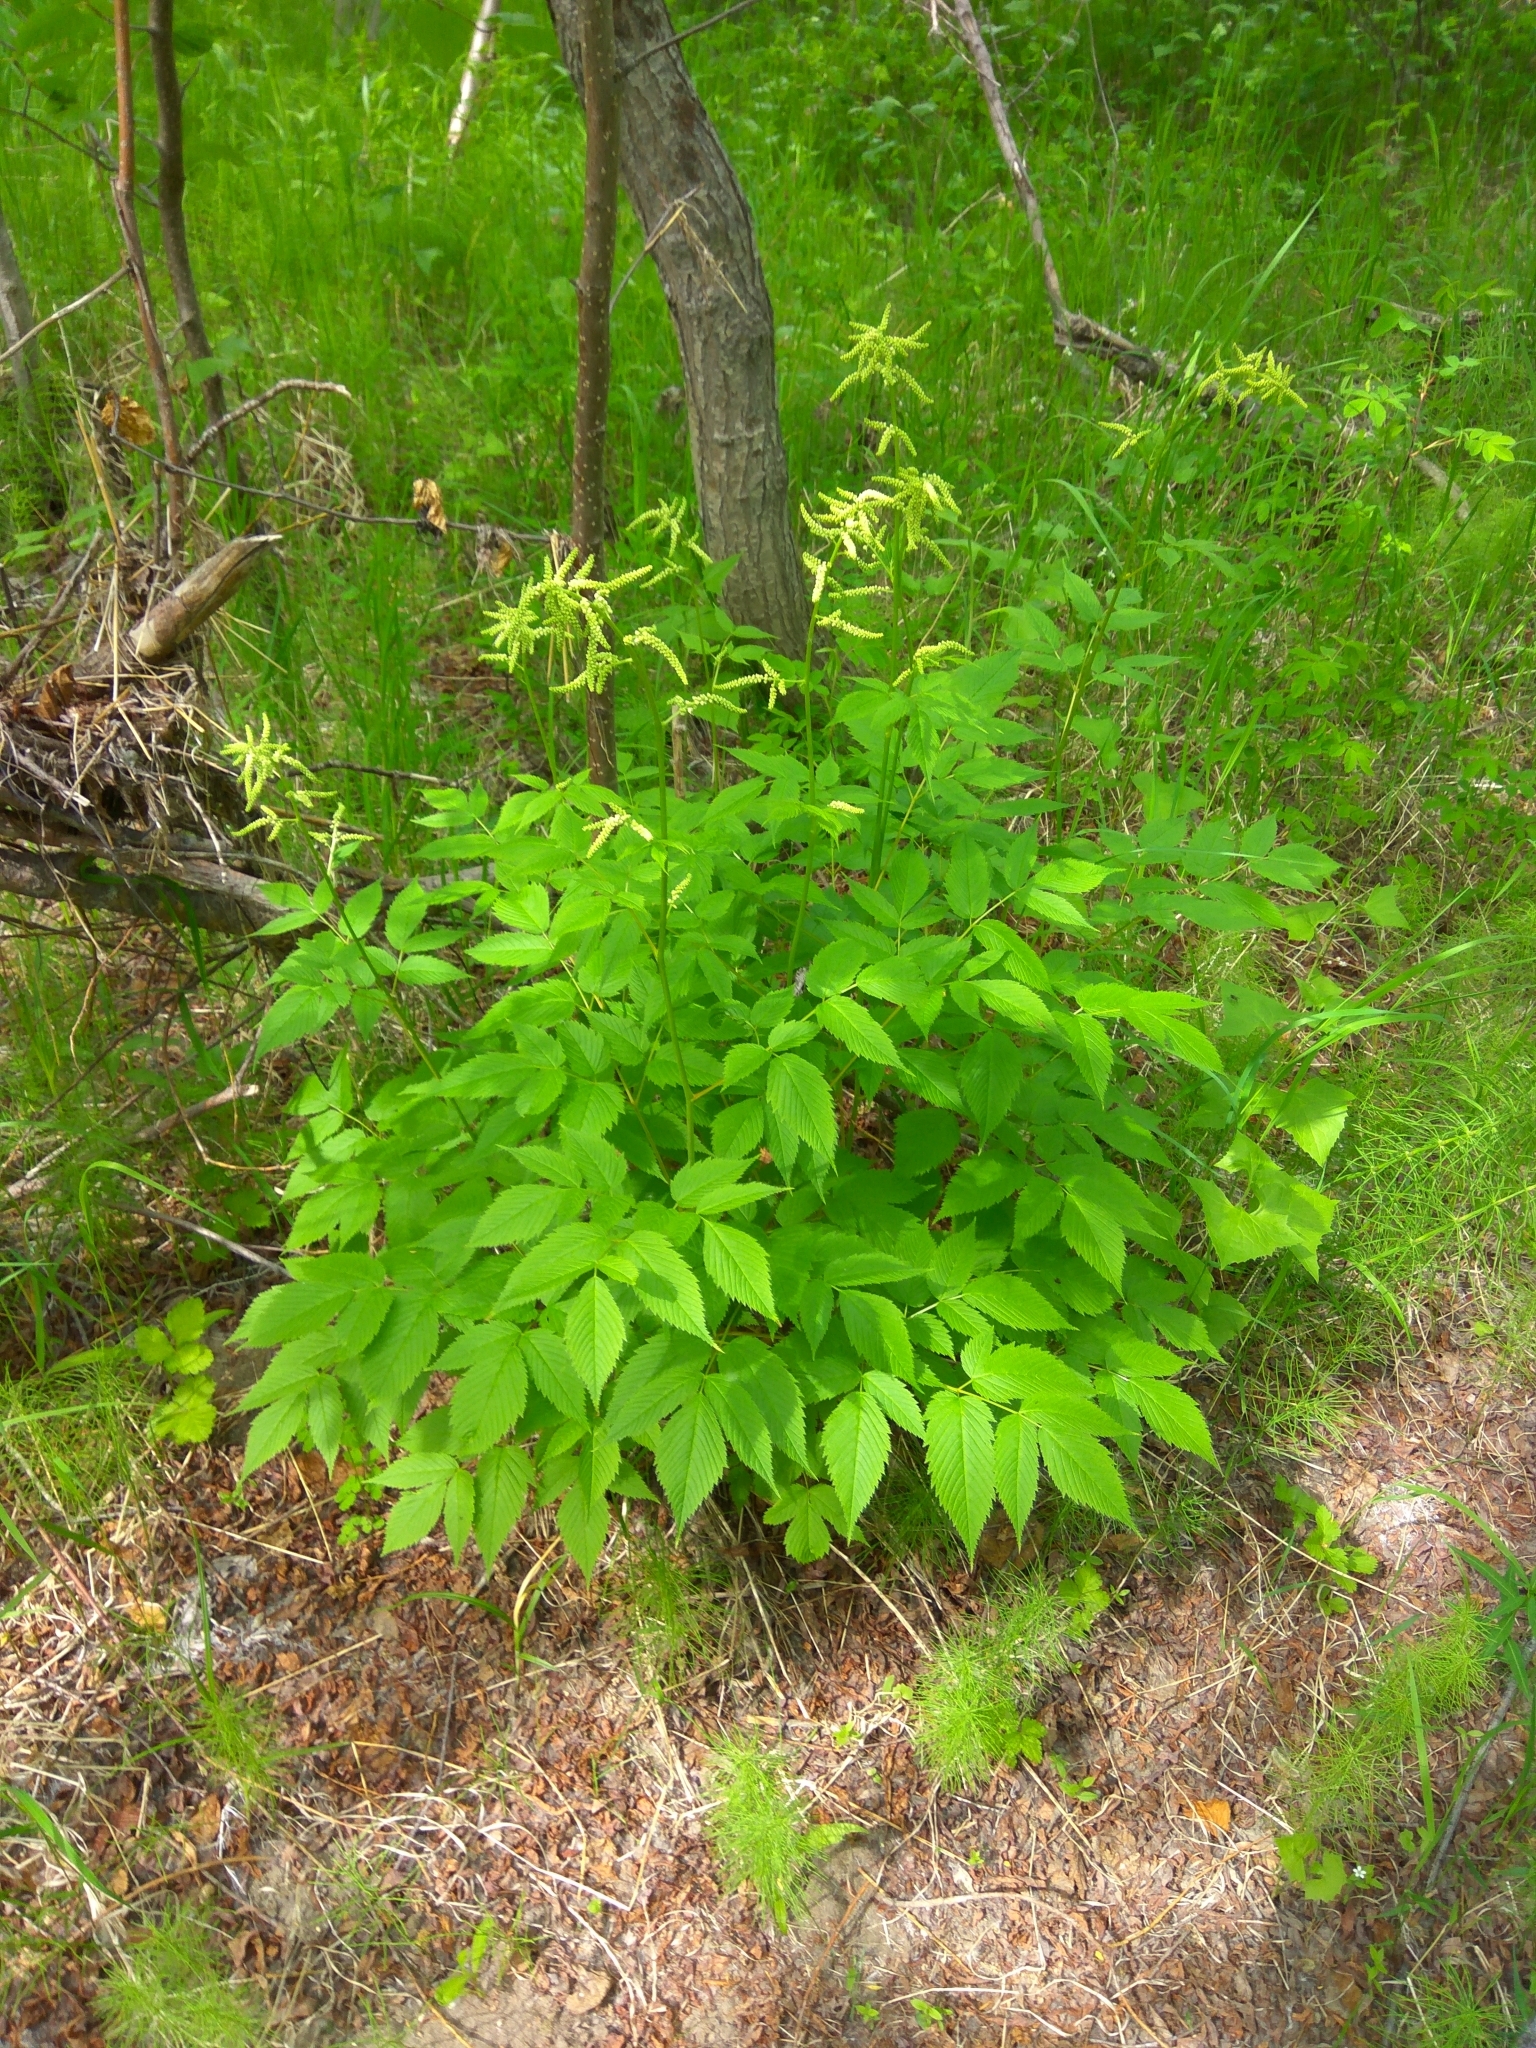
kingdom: Plantae
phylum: Tracheophyta
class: Magnoliopsida
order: Rosales
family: Rosaceae
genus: Aruncus
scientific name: Aruncus dioicus
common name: Buck's-beard
